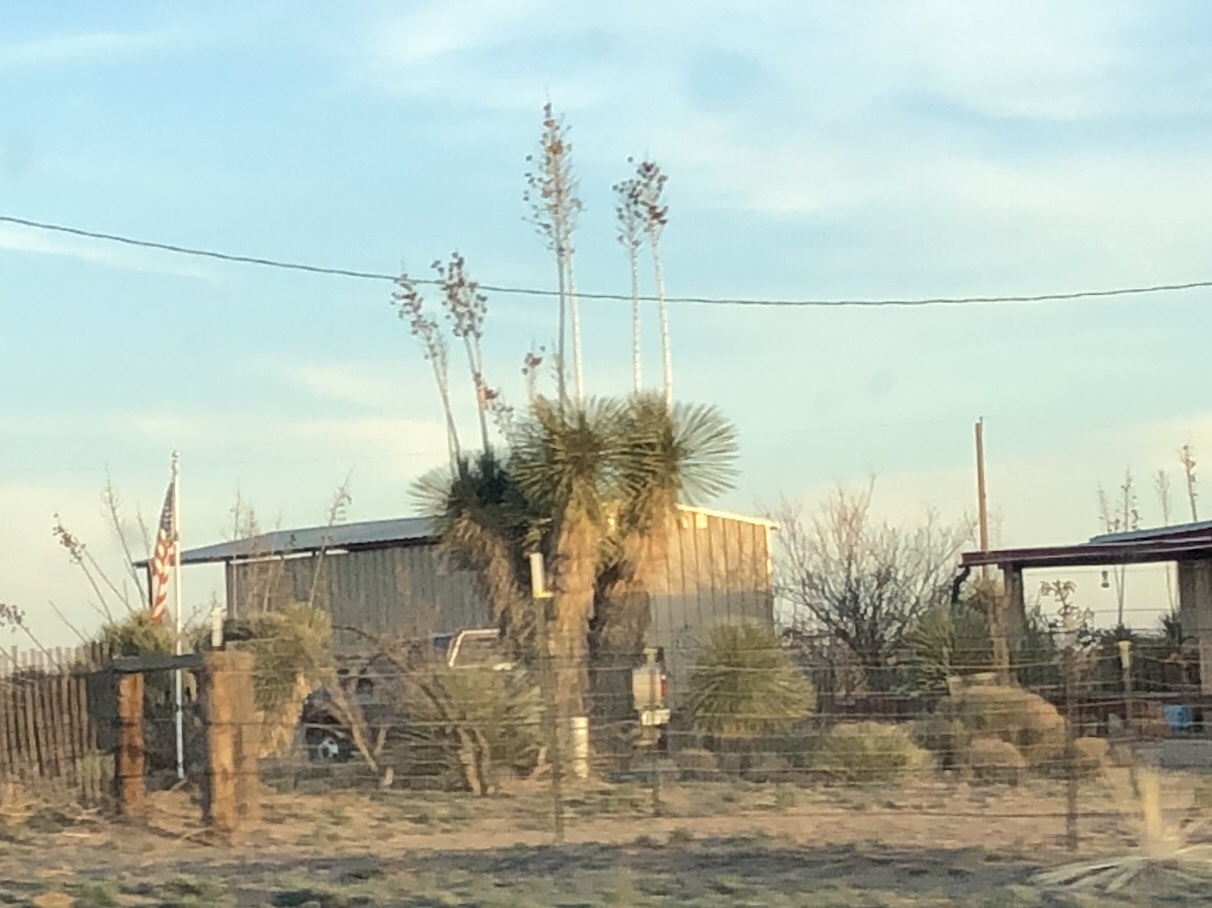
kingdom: Plantae
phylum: Tracheophyta
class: Liliopsida
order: Asparagales
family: Asparagaceae
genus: Yucca
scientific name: Yucca elata
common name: Palmella
